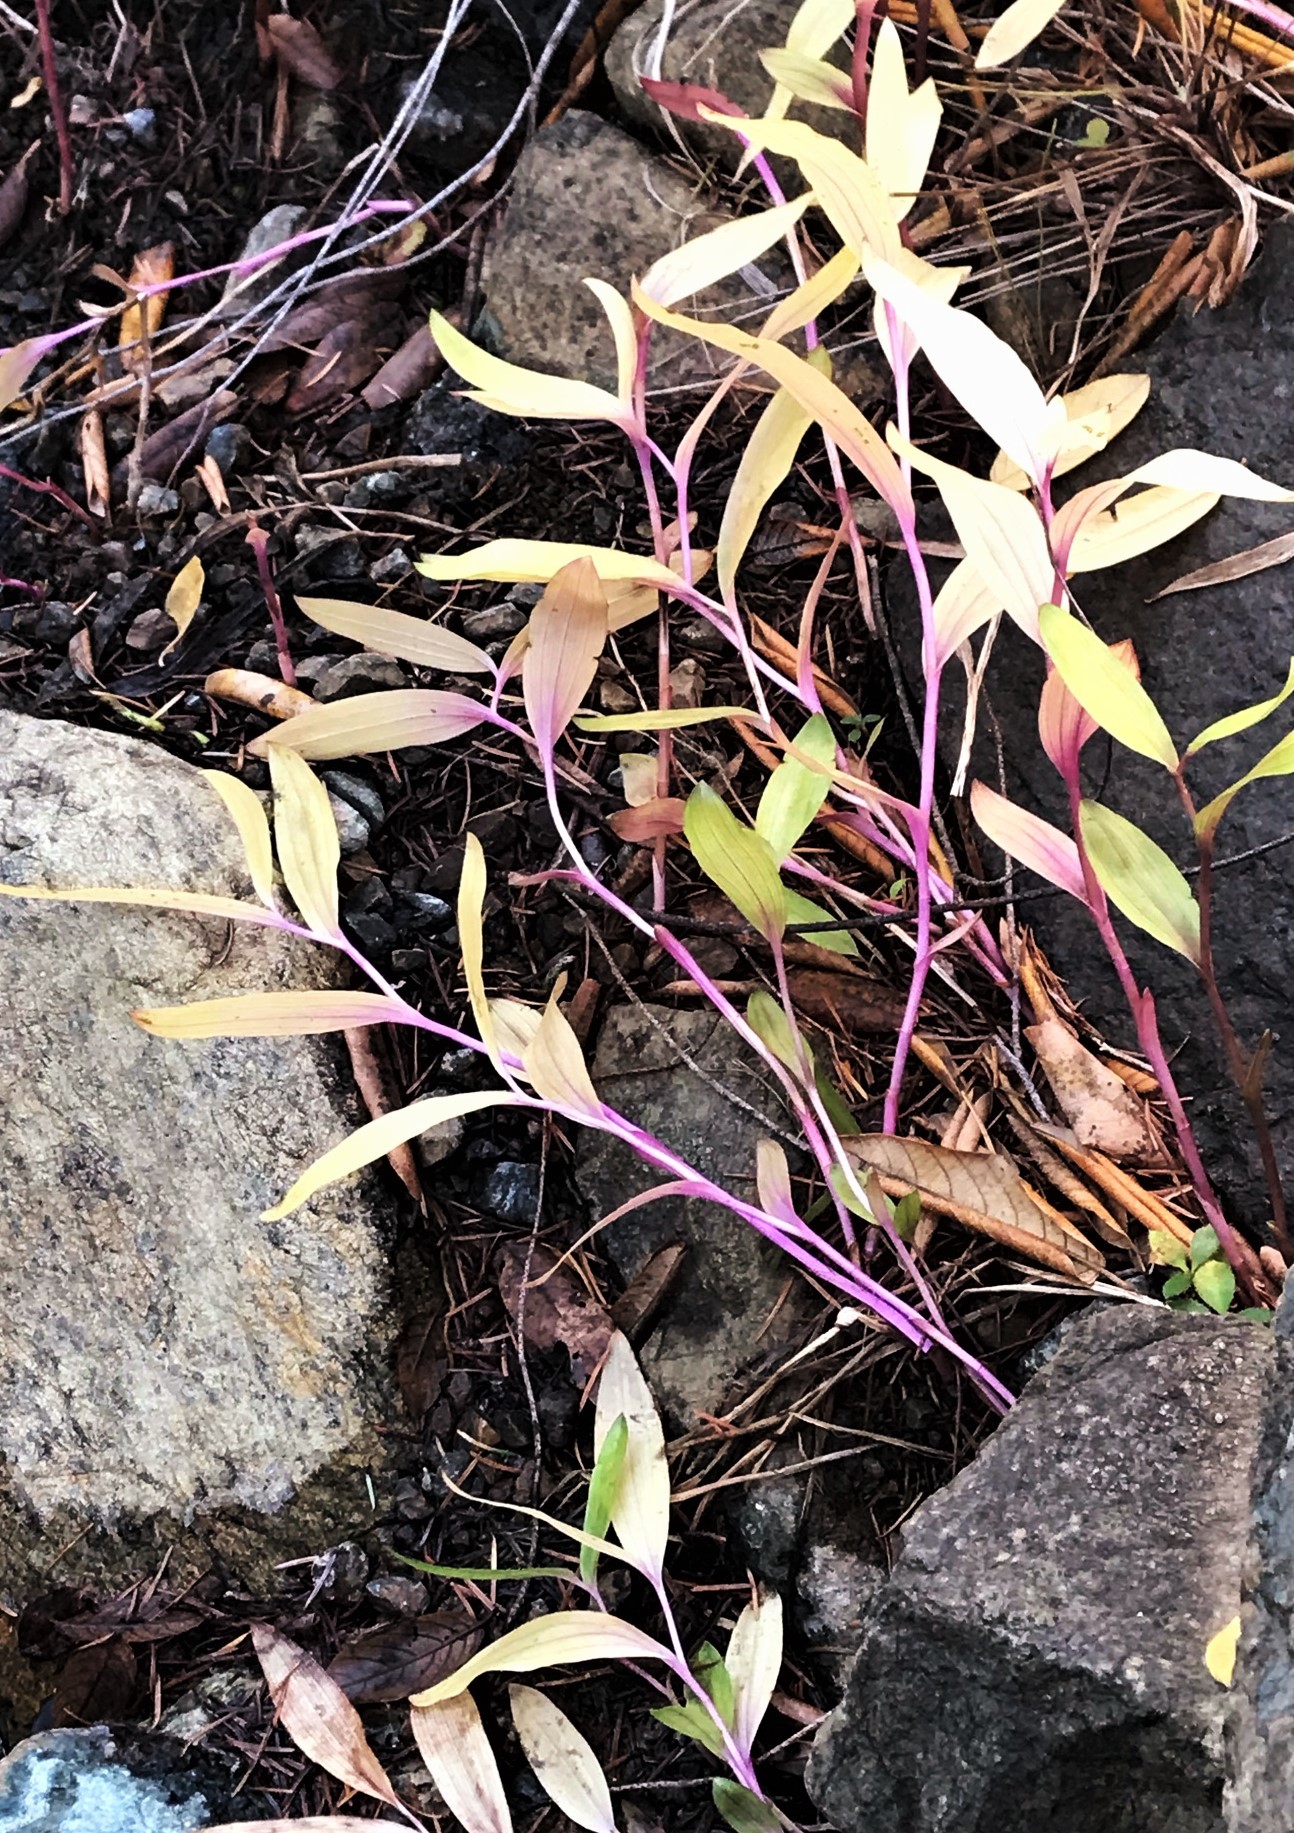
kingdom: Plantae
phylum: Tracheophyta
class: Liliopsida
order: Asparagales
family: Orchidaceae
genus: Epipactis
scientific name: Epipactis gigantea
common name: Chatterbox
